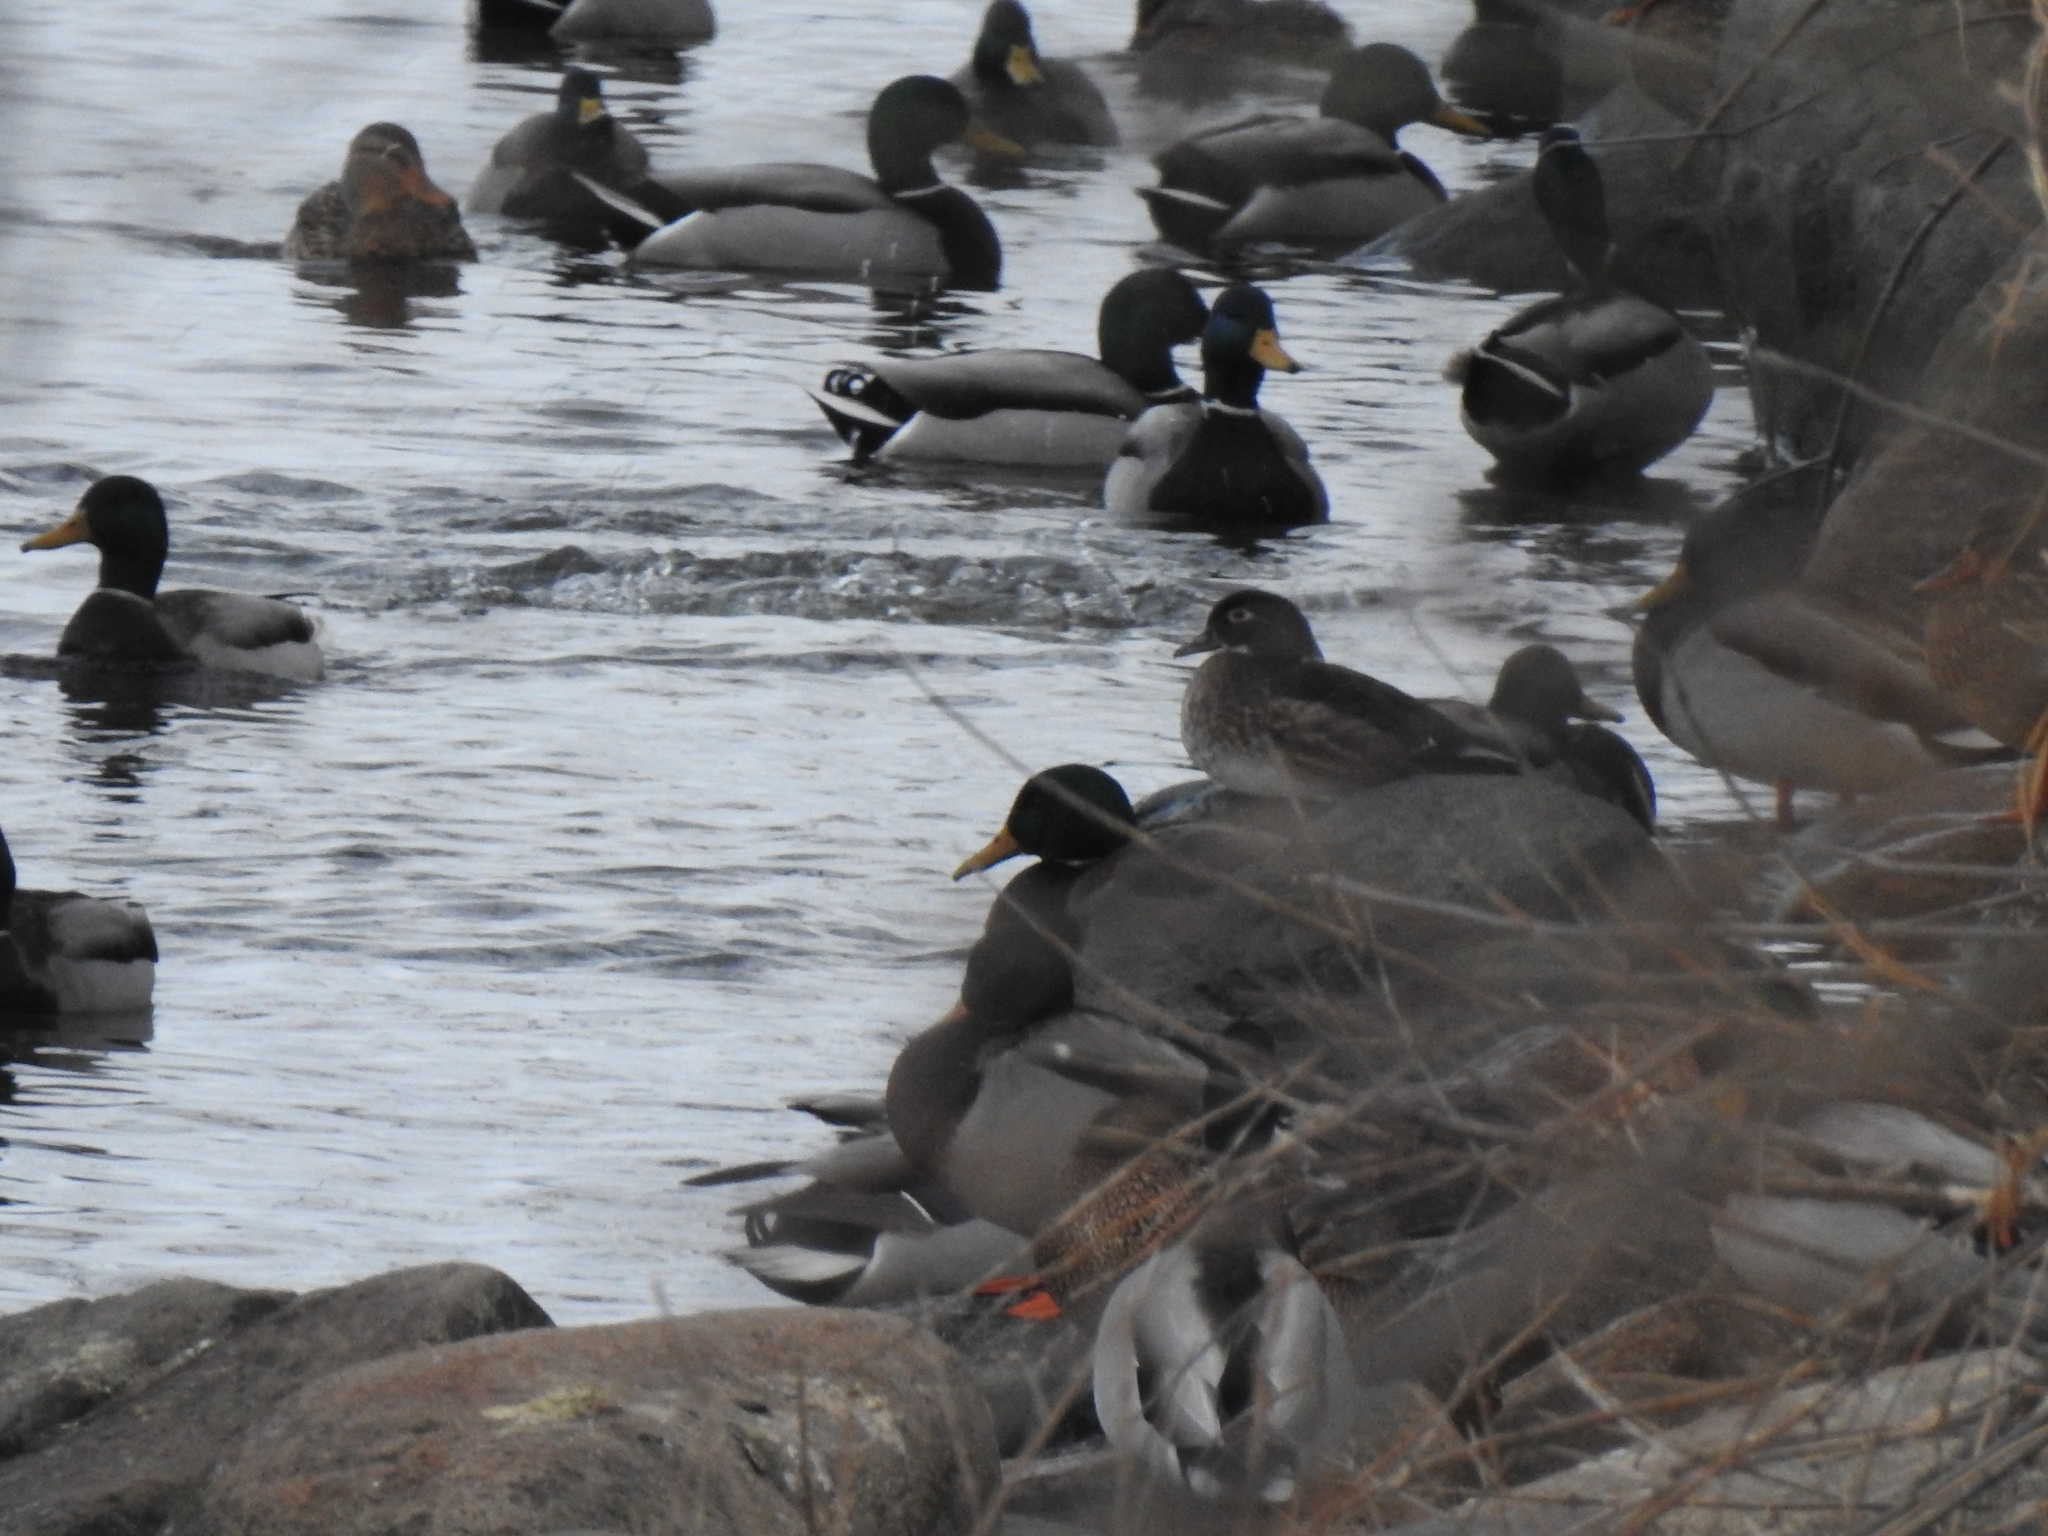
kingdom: Animalia
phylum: Chordata
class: Aves
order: Anseriformes
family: Anatidae
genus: Aix
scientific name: Aix sponsa
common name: Wood duck
